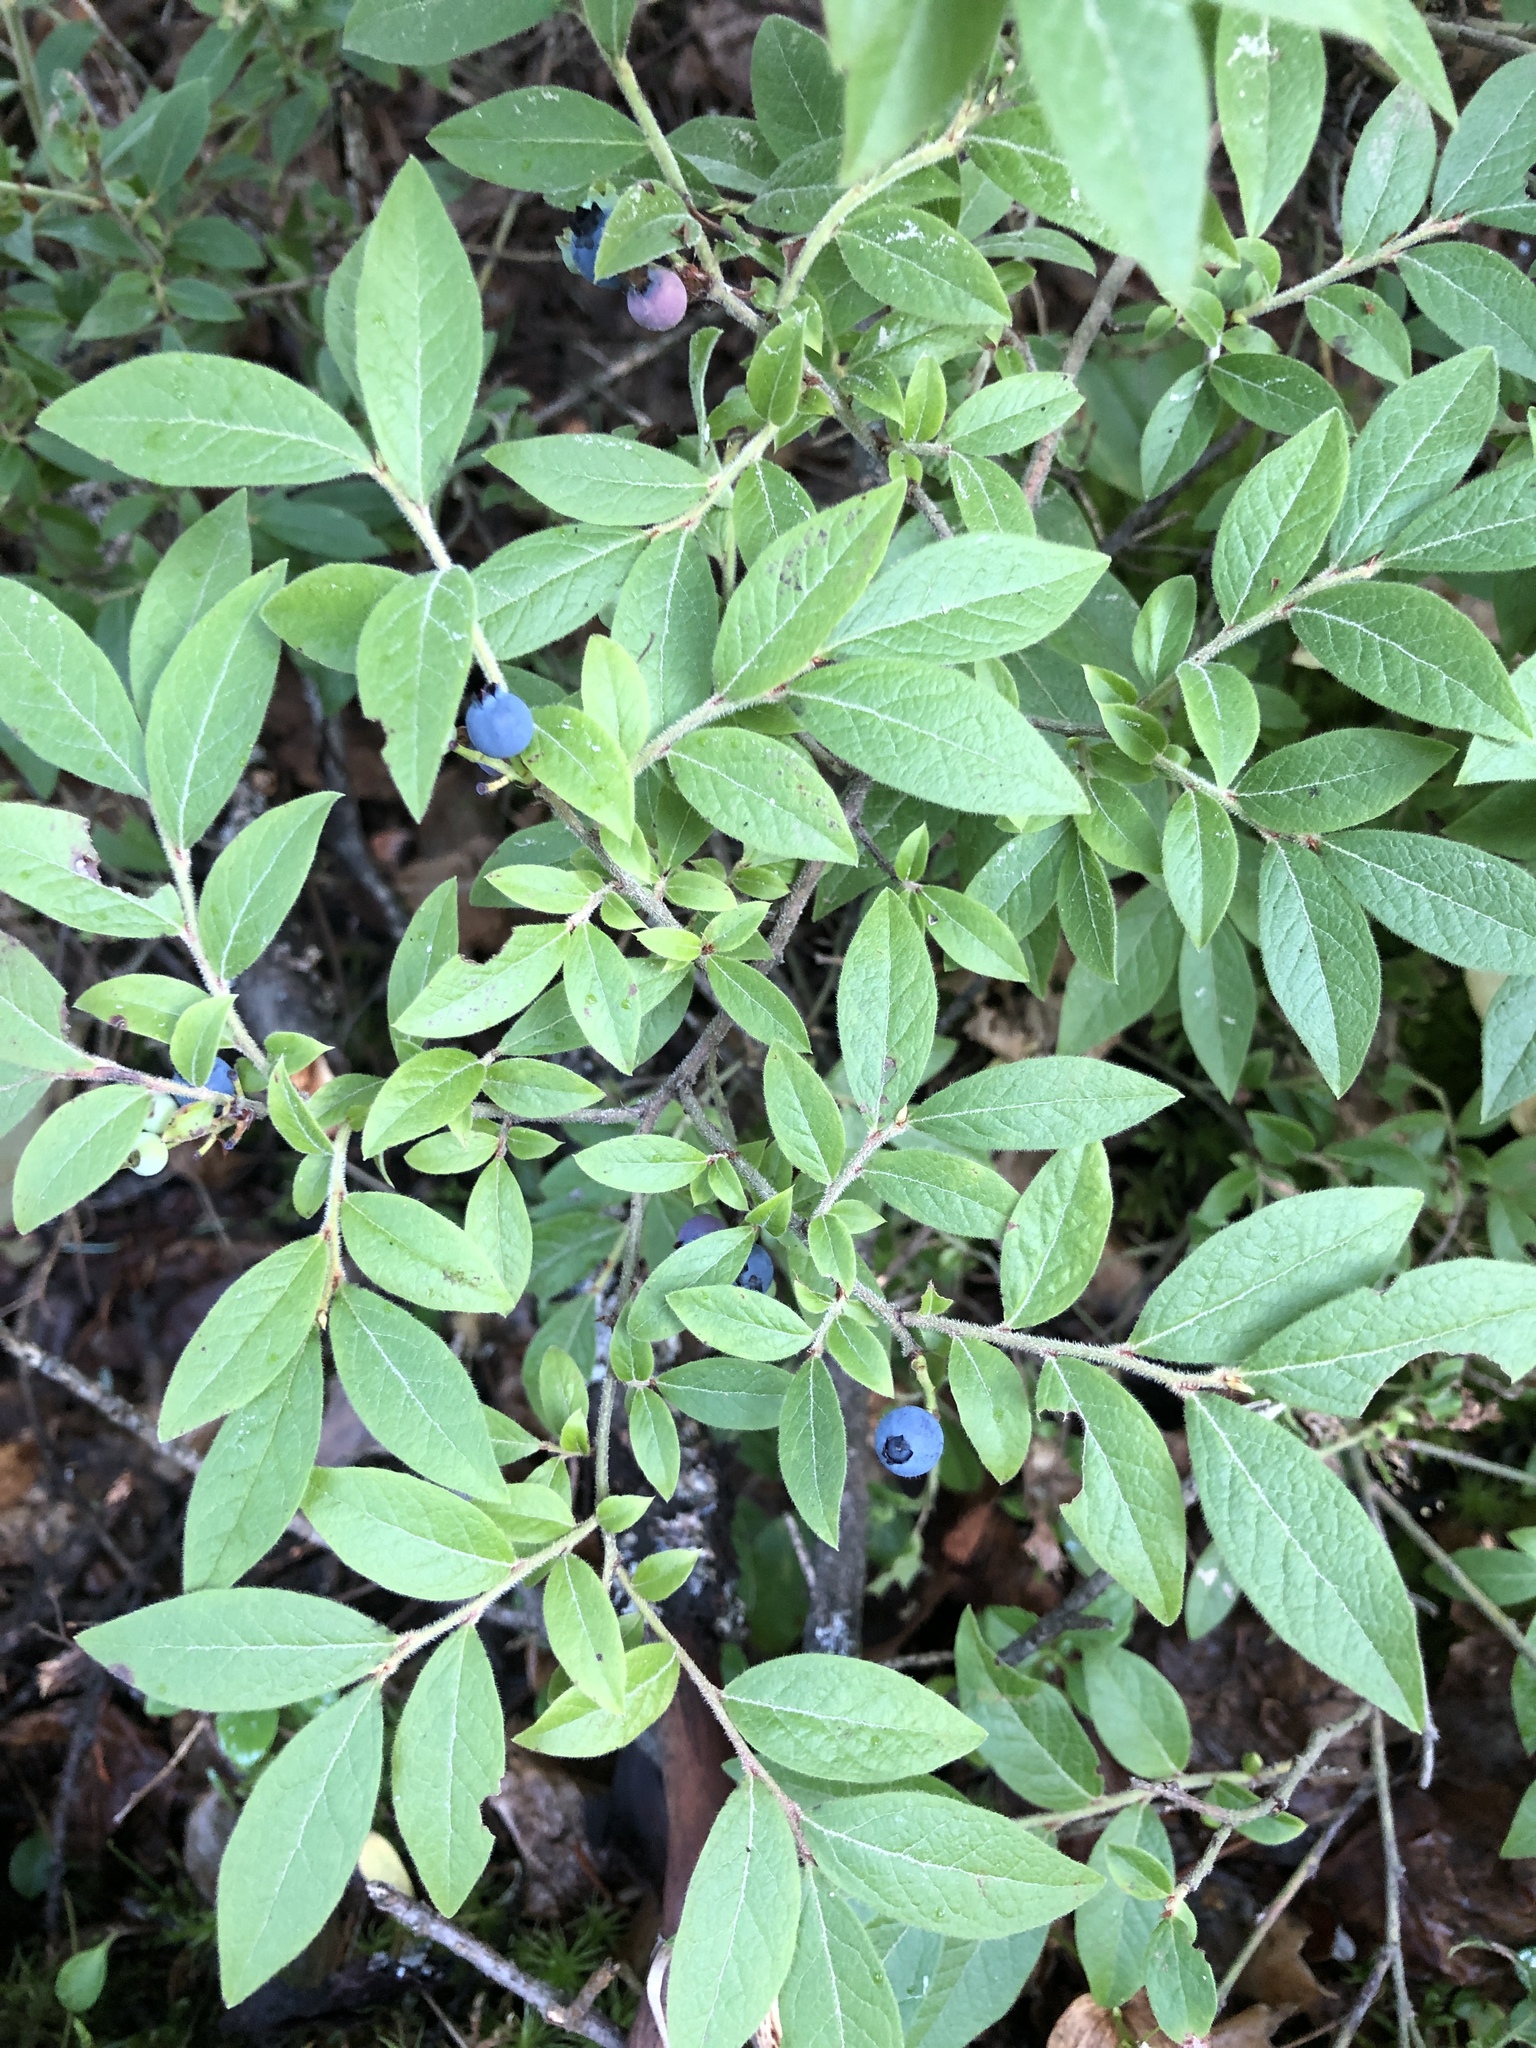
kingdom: Plantae
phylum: Tracheophyta
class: Magnoliopsida
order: Ericales
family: Ericaceae
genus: Vaccinium
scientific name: Vaccinium myrtilloides
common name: Canada blueberry
